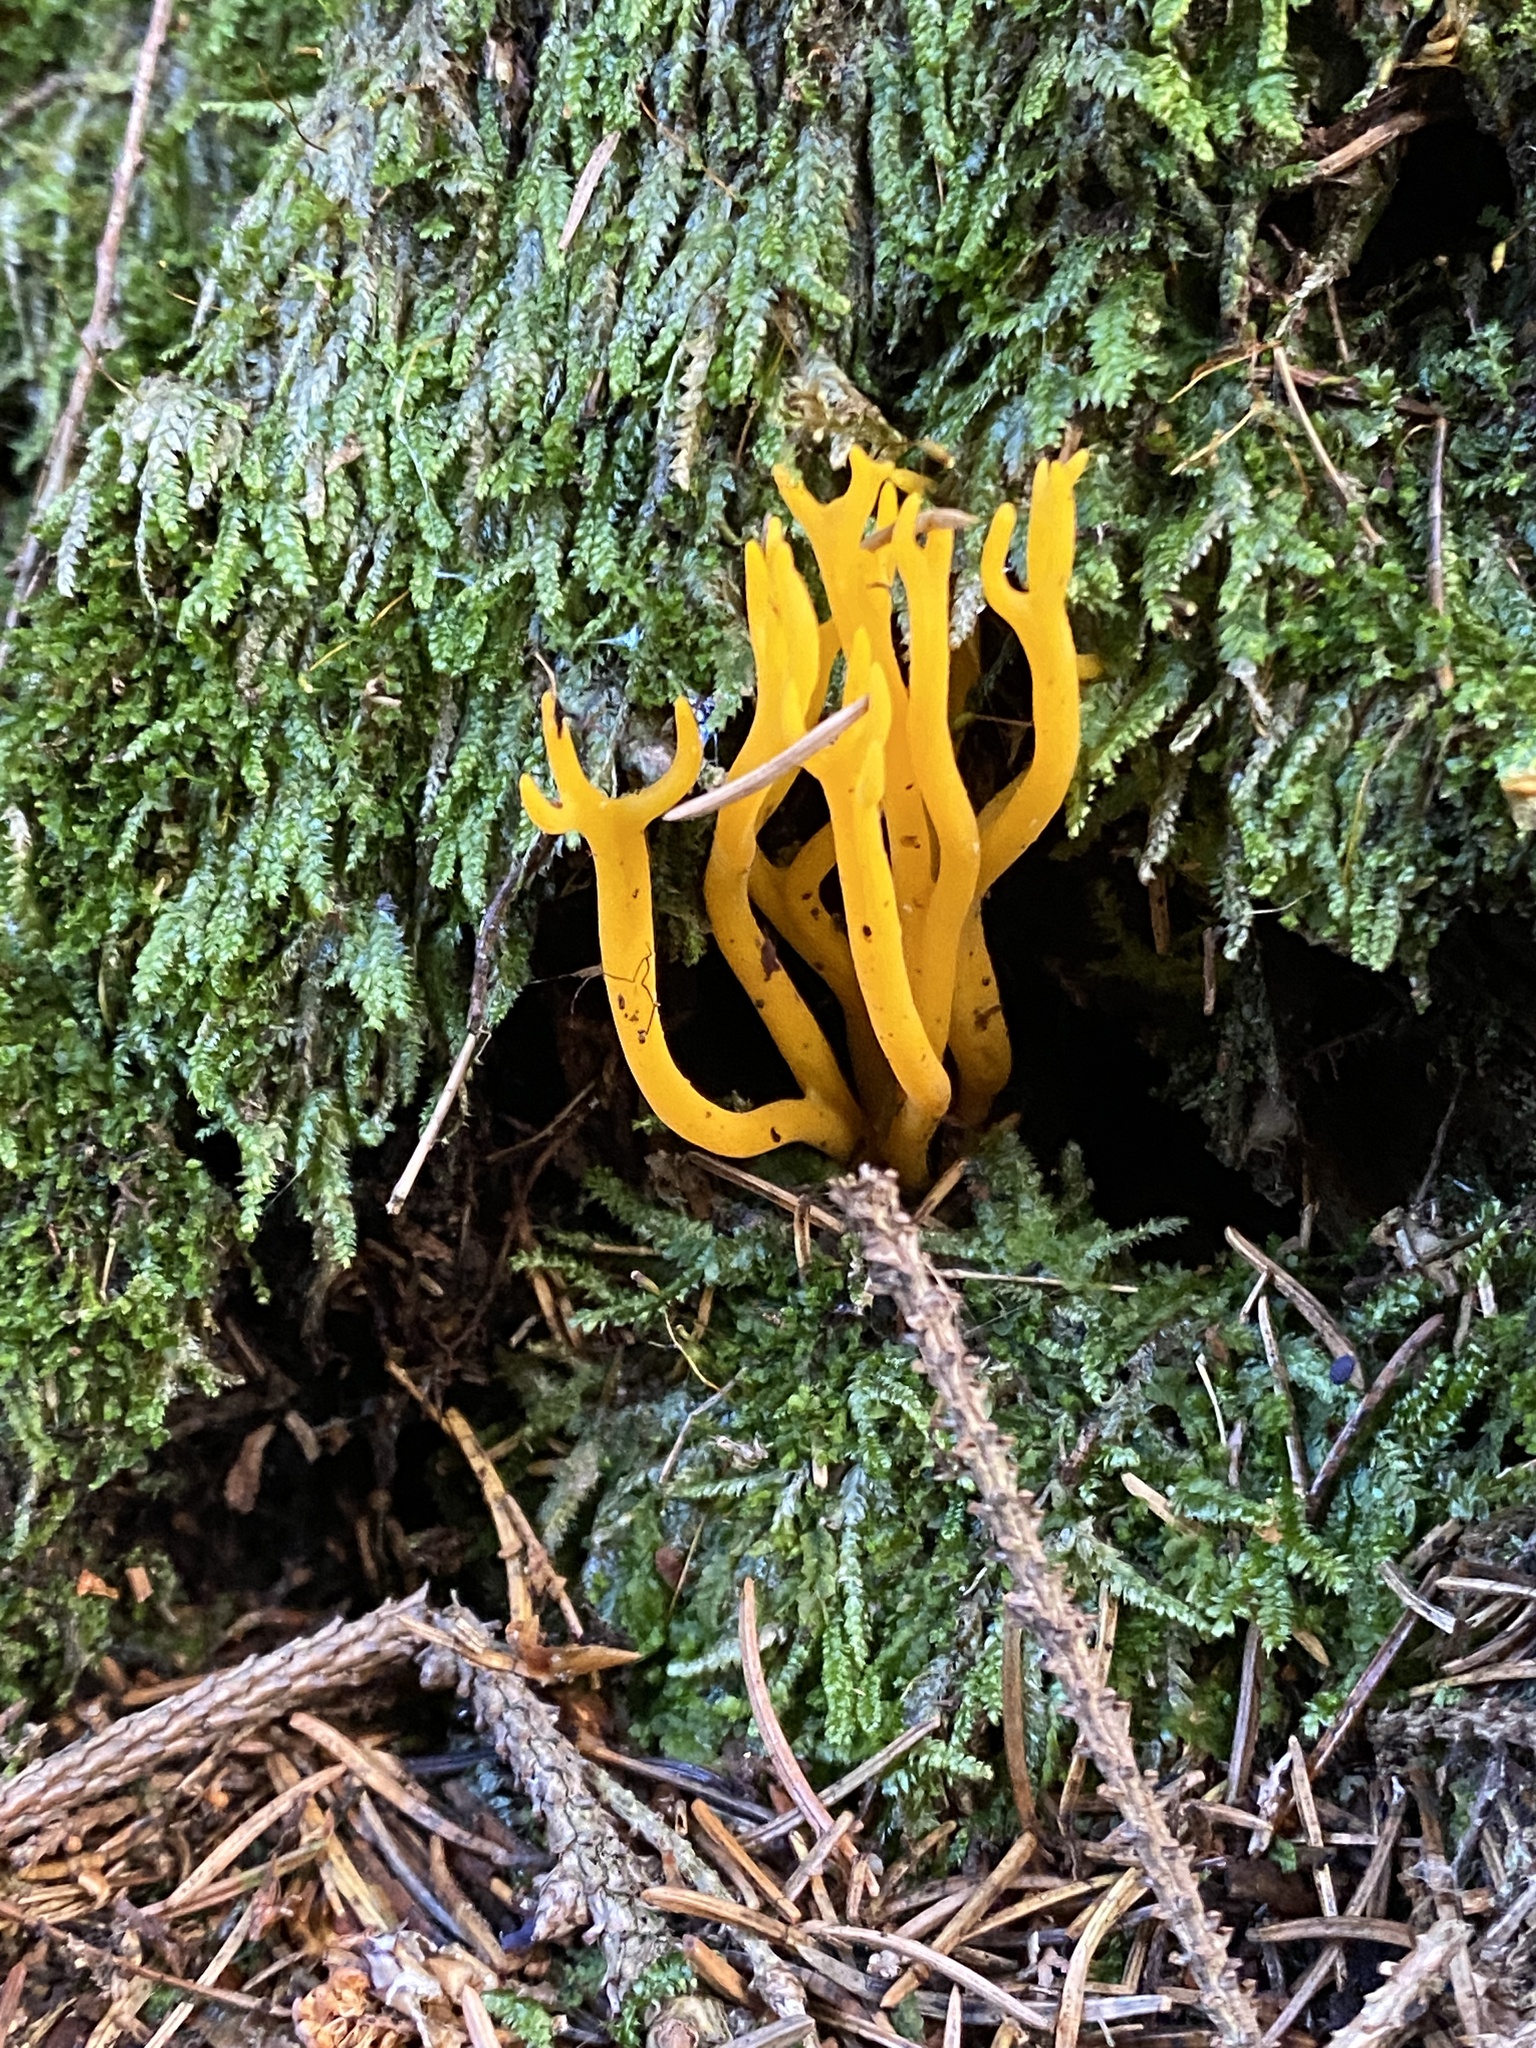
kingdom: Fungi
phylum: Basidiomycota
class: Dacrymycetes
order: Dacrymycetales
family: Dacrymycetaceae
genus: Calocera
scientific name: Calocera viscosa
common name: Yellow stagshorn
